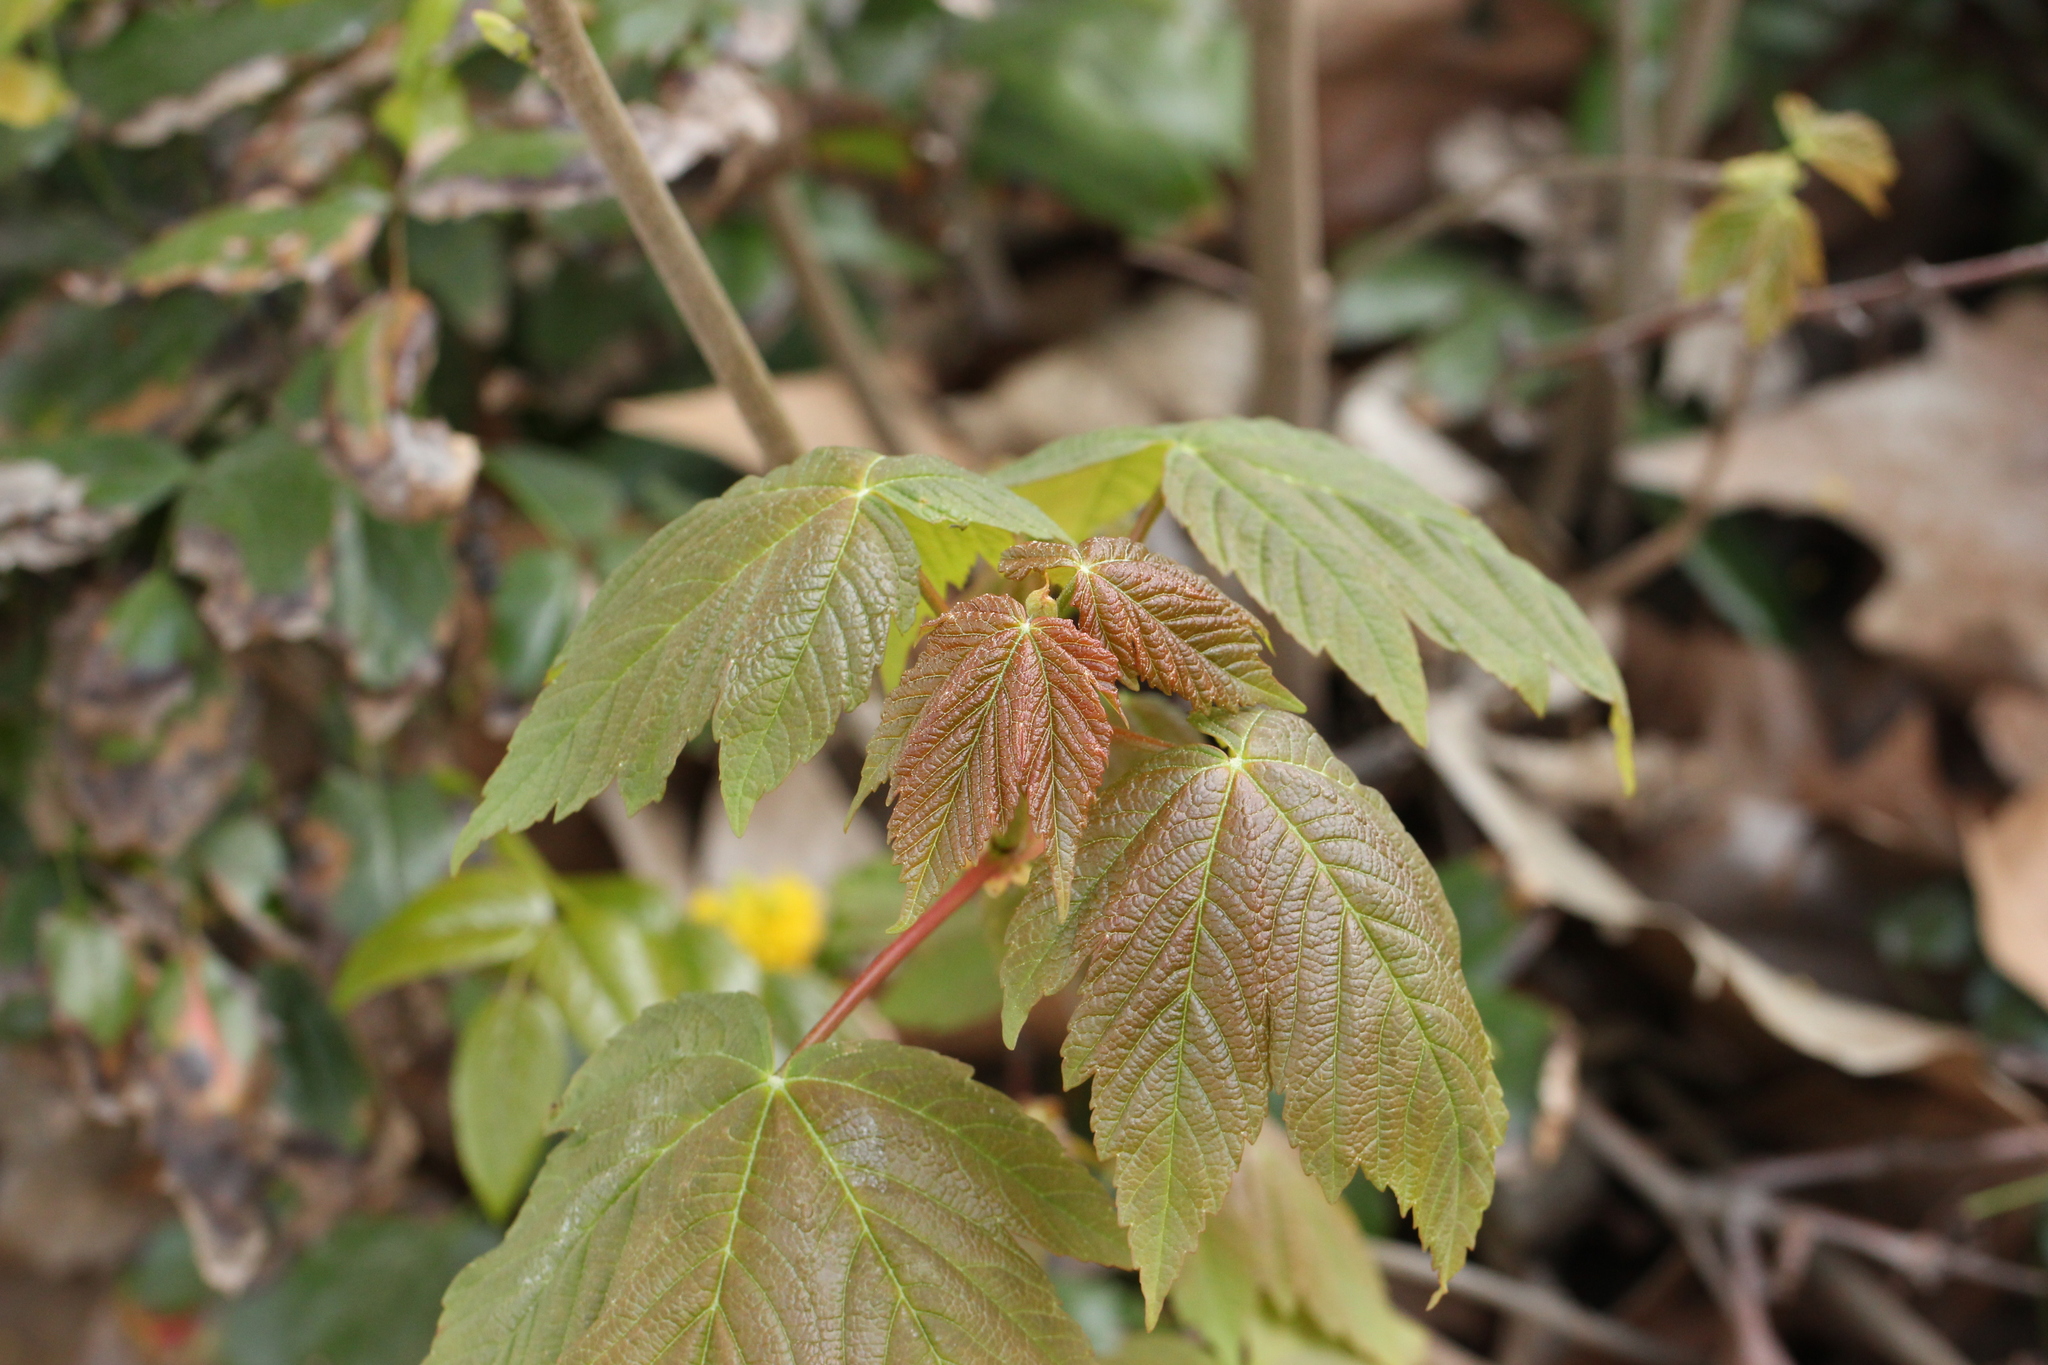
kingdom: Plantae
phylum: Tracheophyta
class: Magnoliopsida
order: Sapindales
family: Sapindaceae
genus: Acer
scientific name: Acer pseudoplatanus
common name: Sycamore
